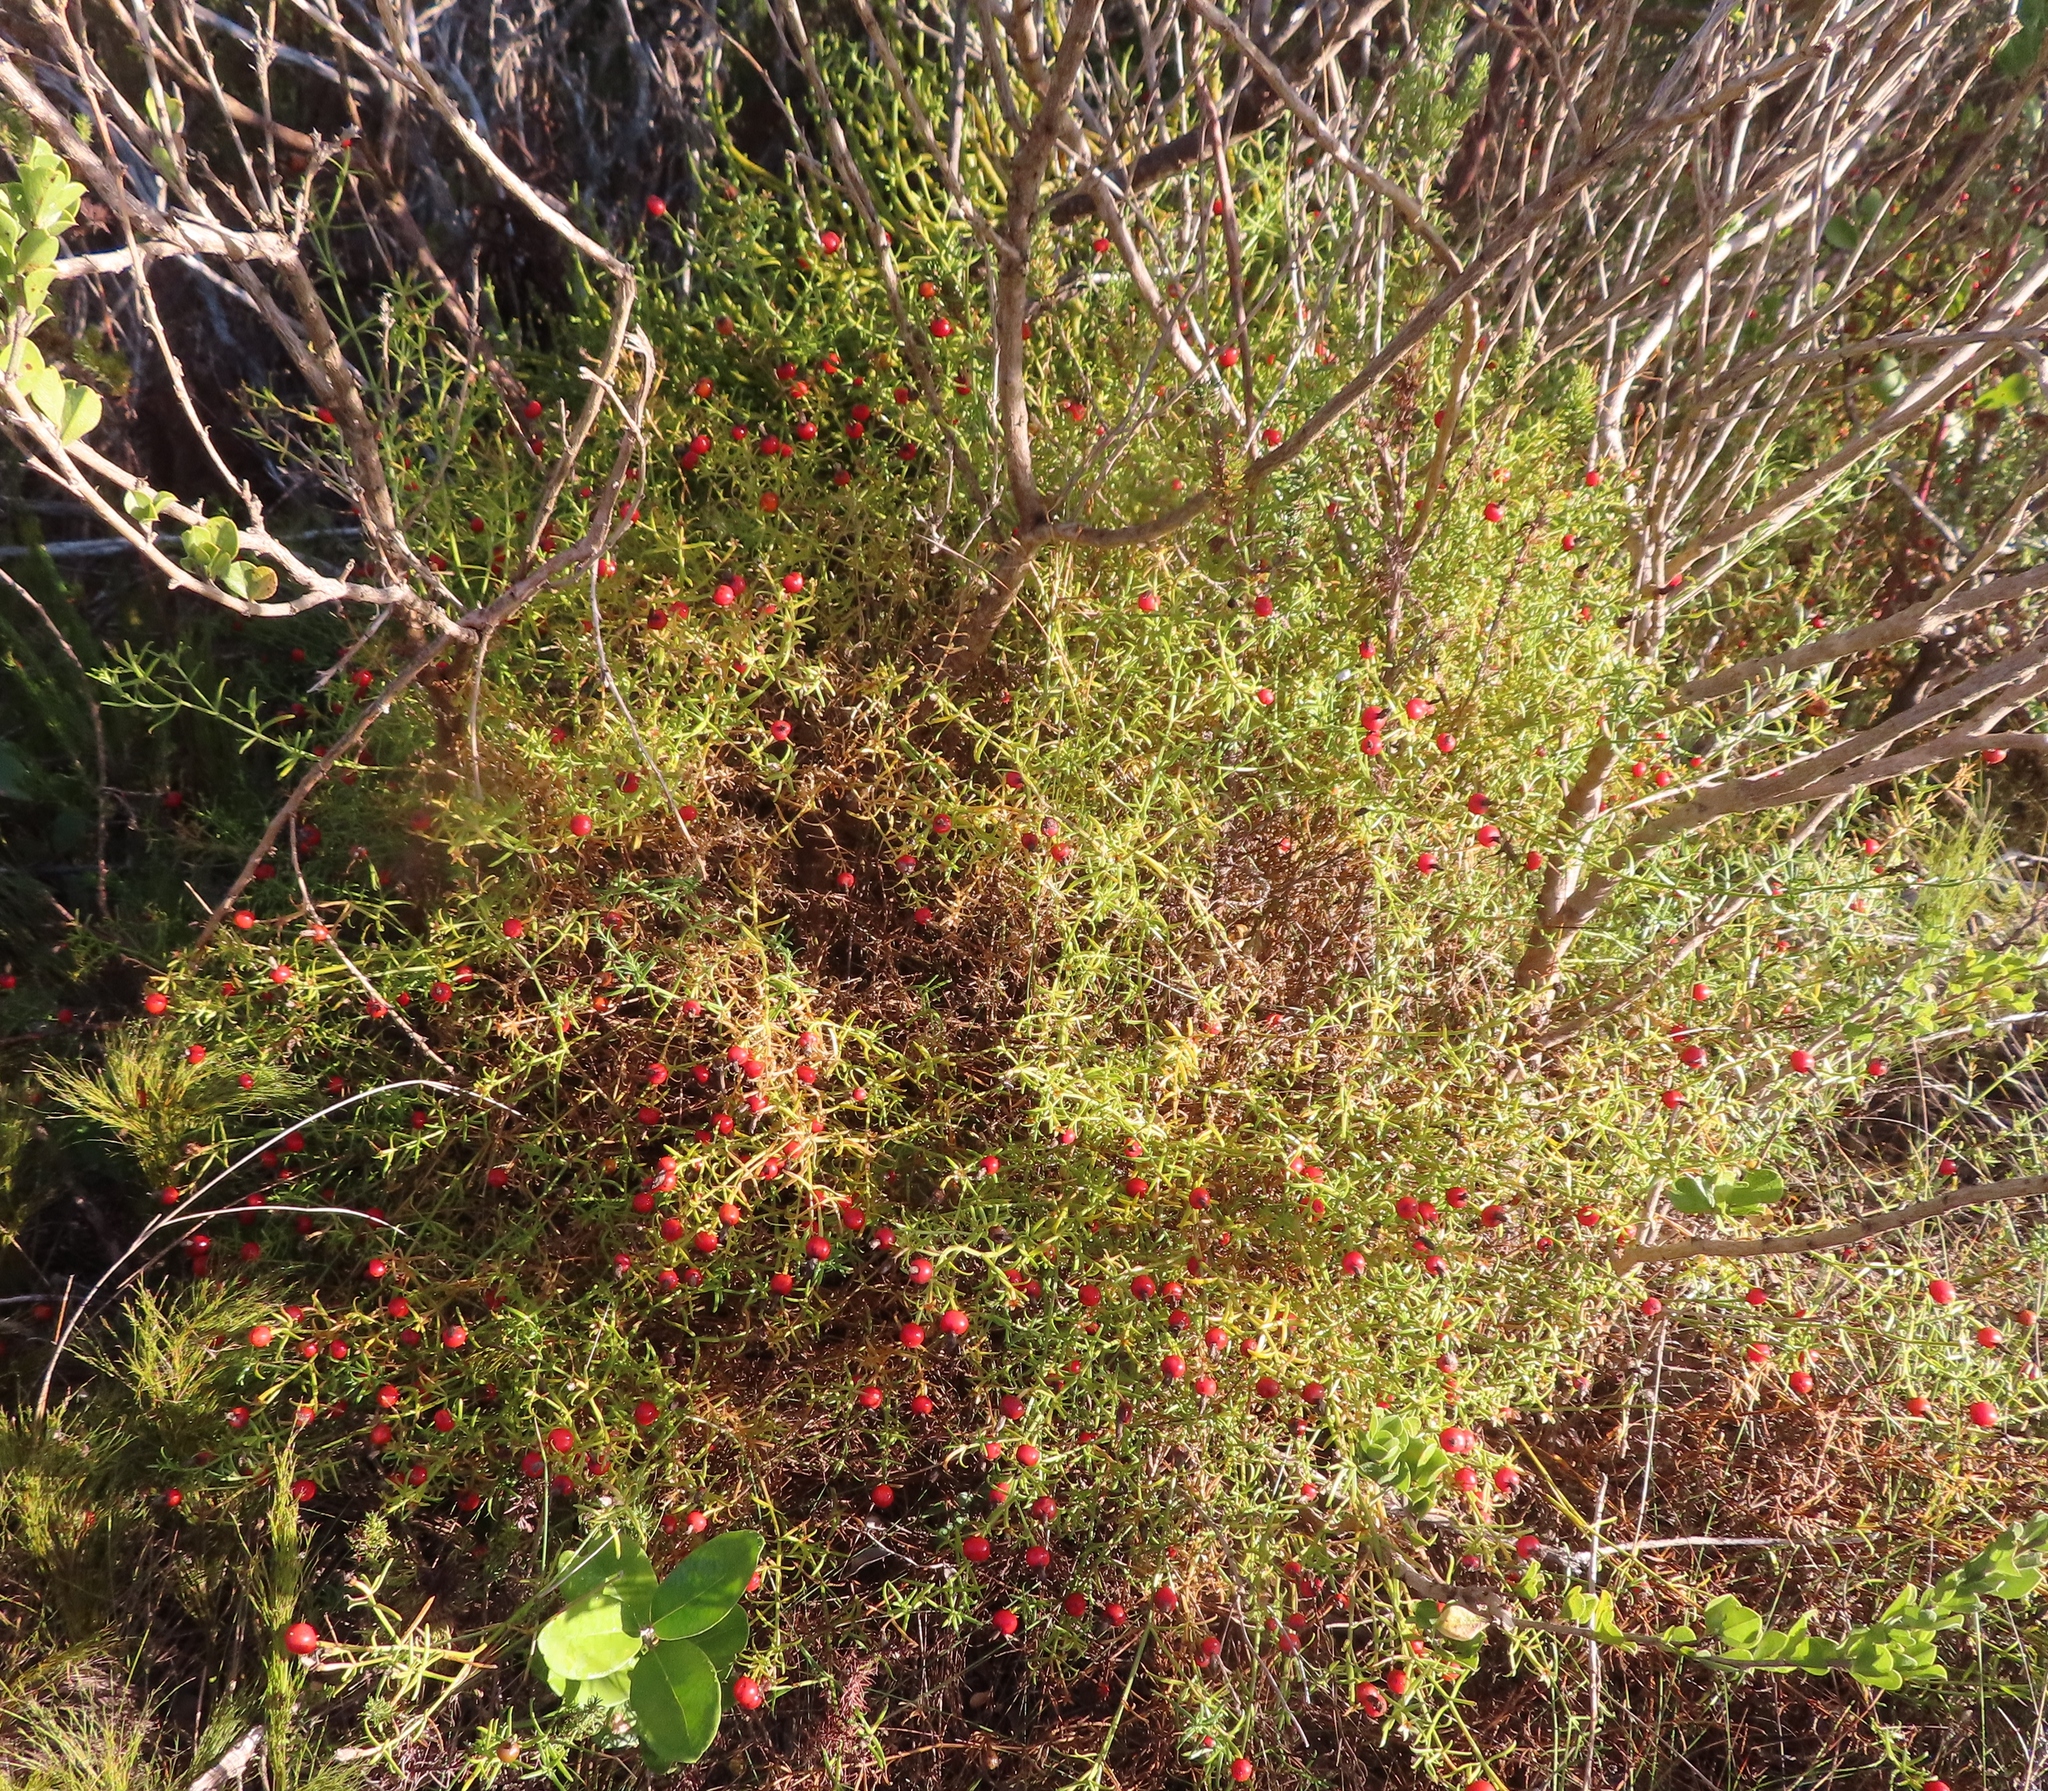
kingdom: Plantae
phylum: Tracheophyta
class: Magnoliopsida
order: Gentianales
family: Gentianaceae
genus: Chironia
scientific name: Chironia baccifera
